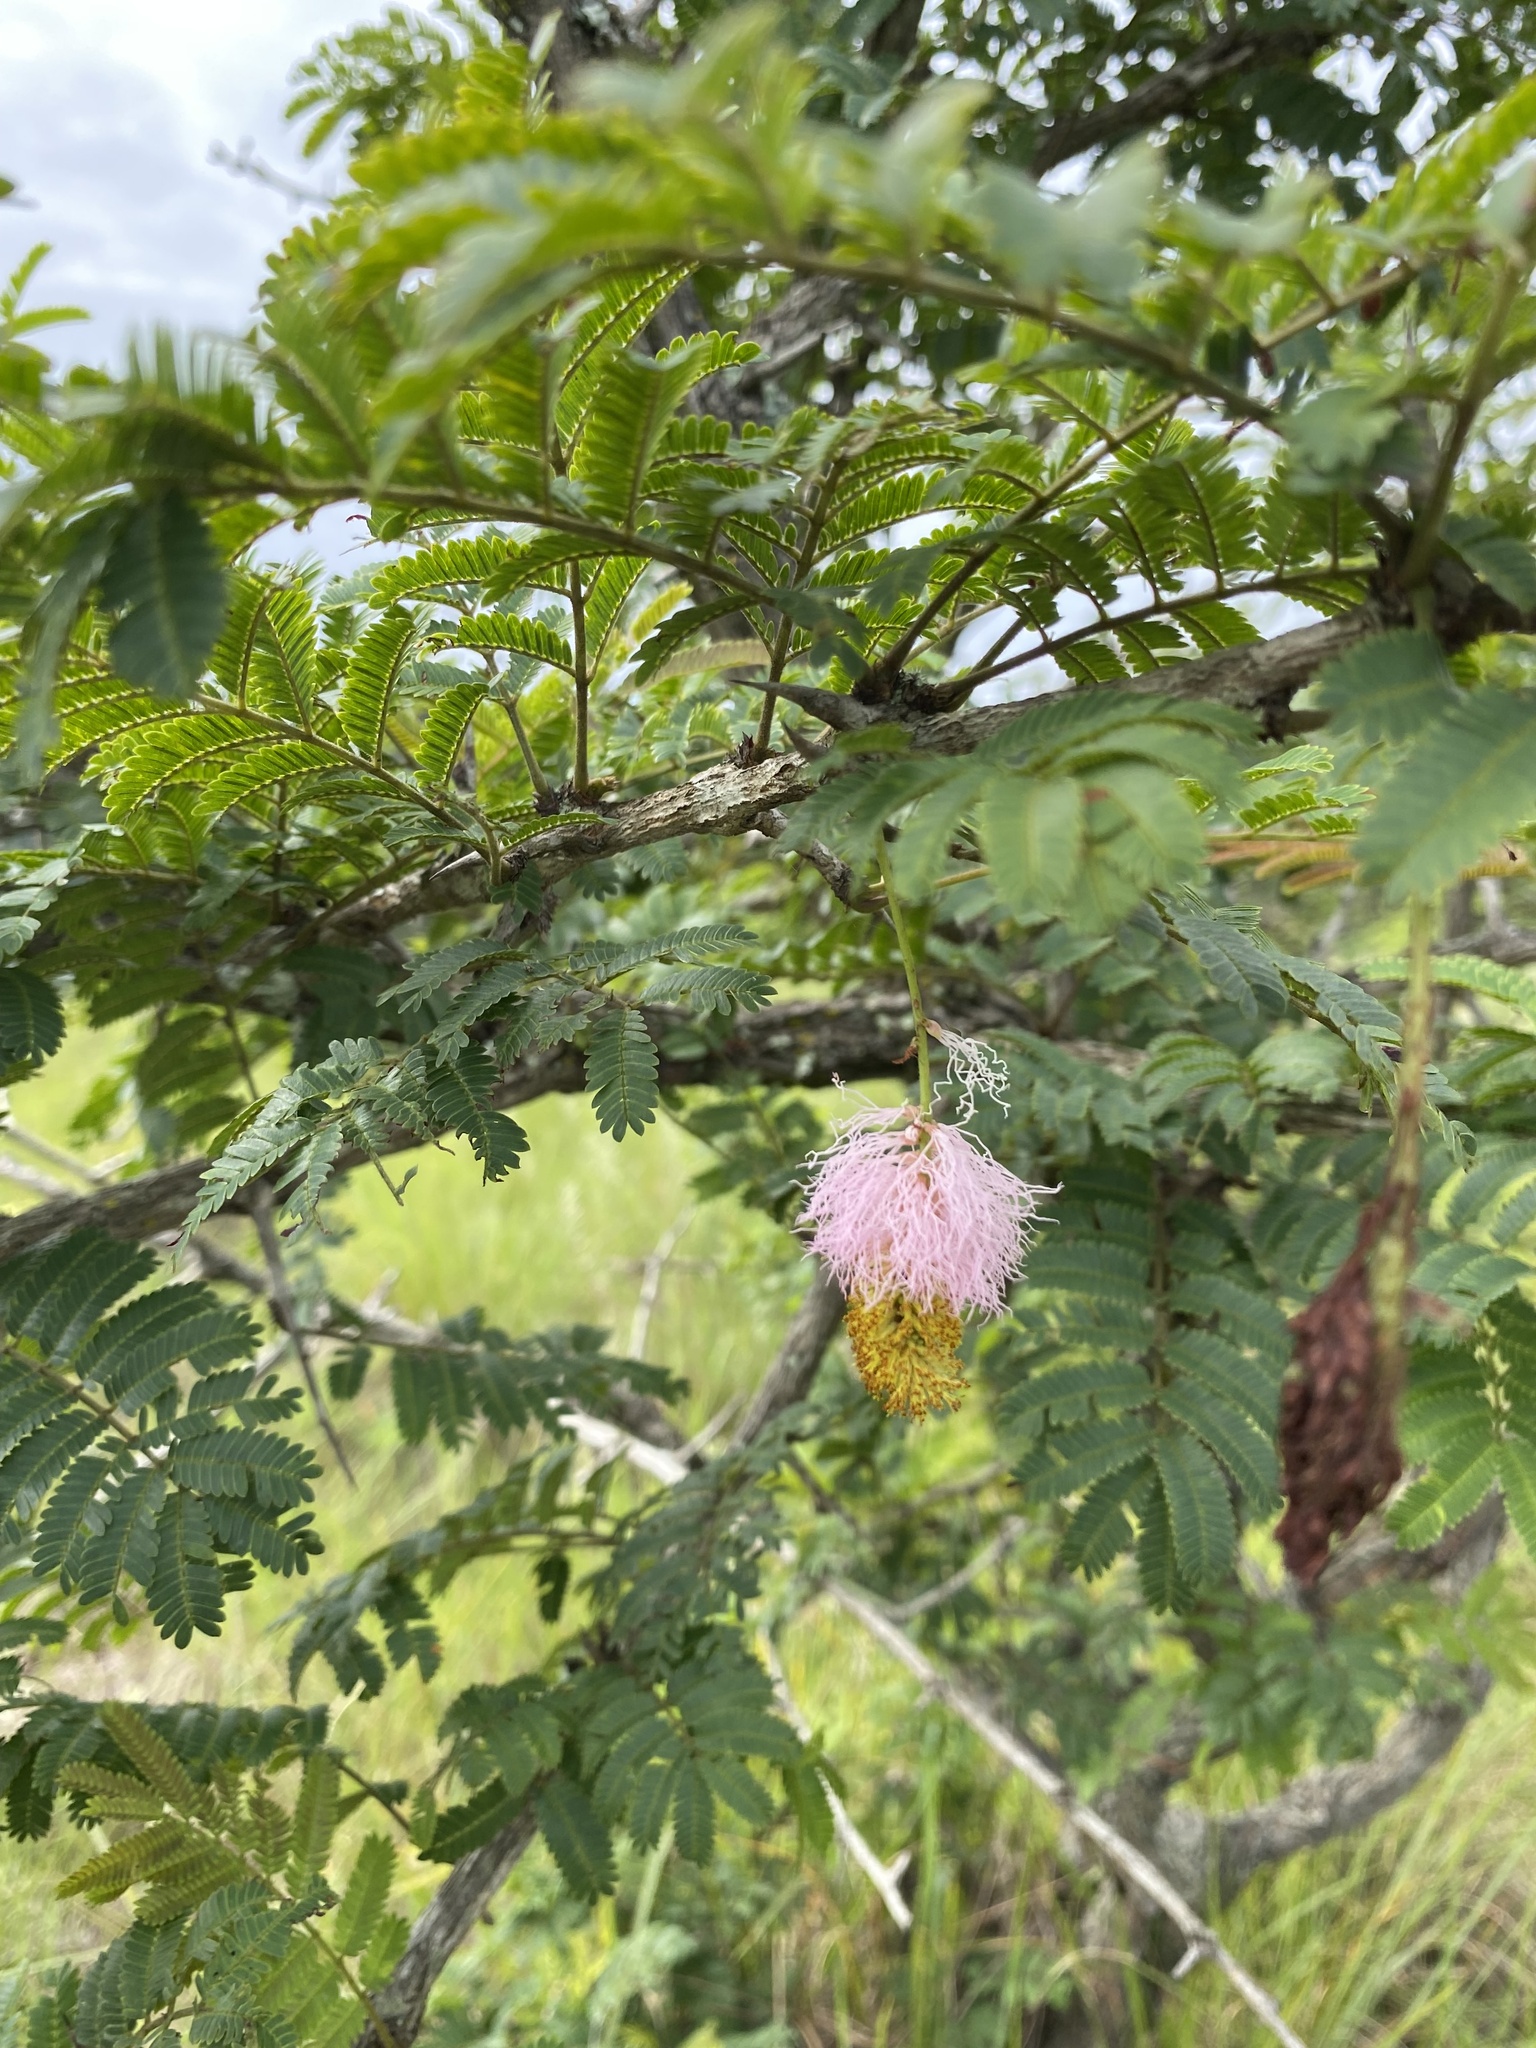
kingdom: Plantae
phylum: Tracheophyta
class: Magnoliopsida
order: Fabales
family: Fabaceae
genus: Dichrostachys
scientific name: Dichrostachys cinerea
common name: Sicklebush
